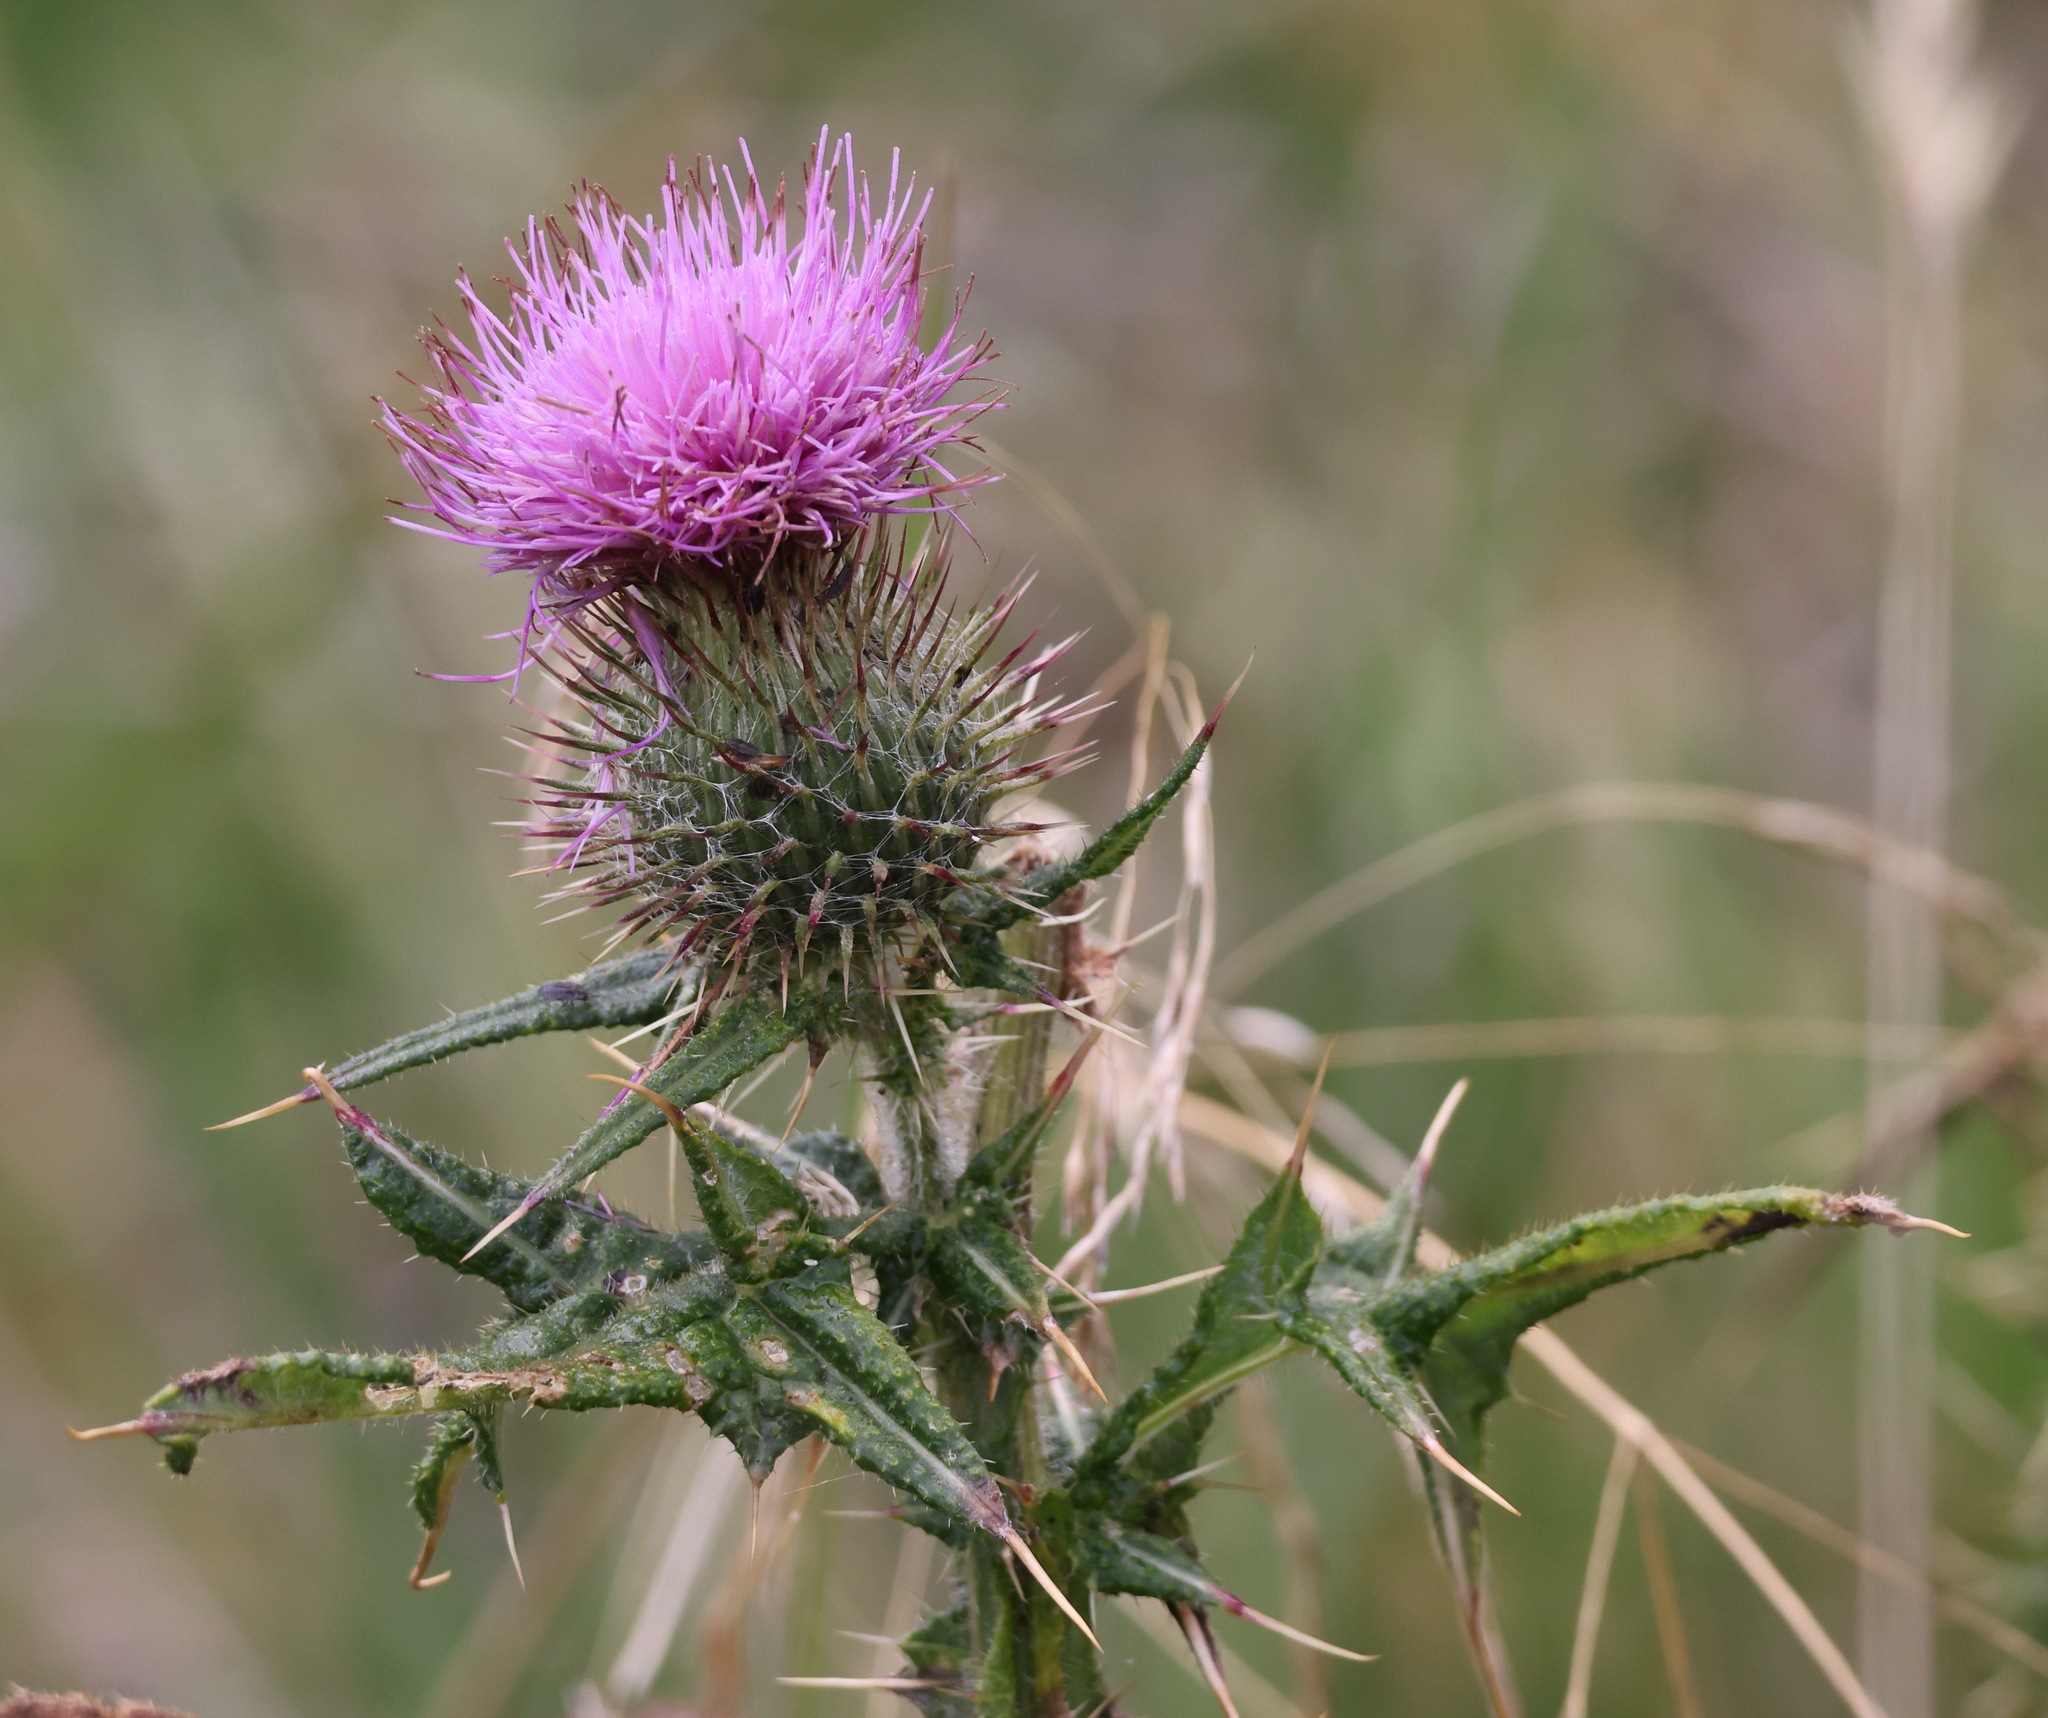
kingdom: Plantae
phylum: Tracheophyta
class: Magnoliopsida
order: Asterales
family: Asteraceae
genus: Cirsium
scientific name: Cirsium vulgare
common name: Bull thistle
